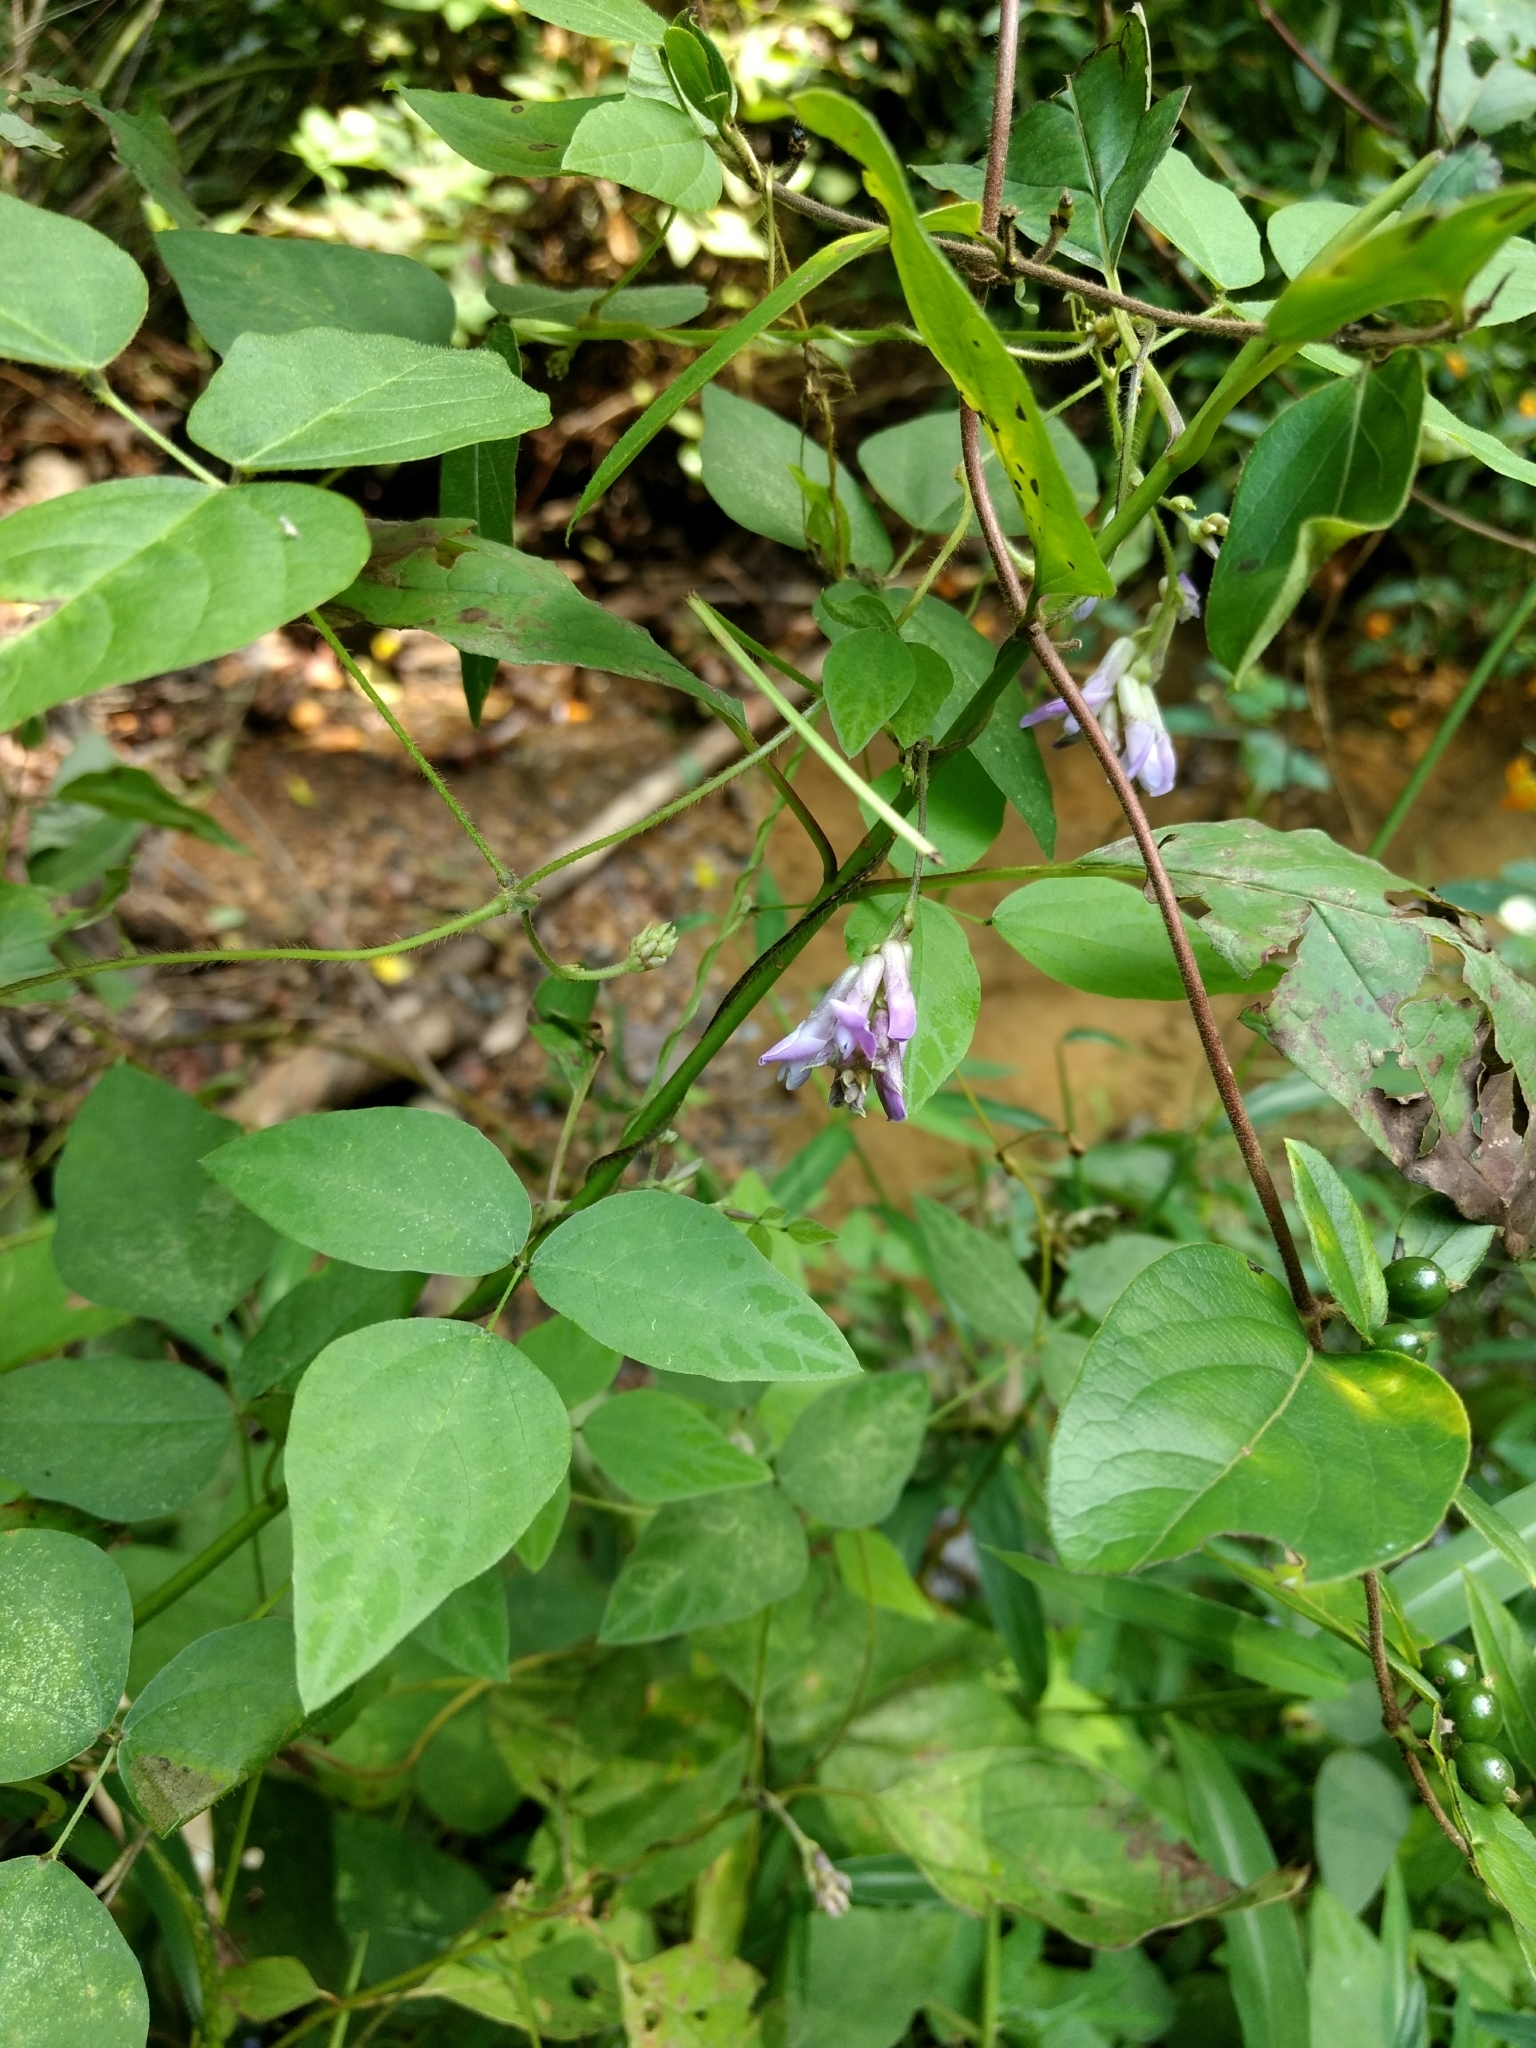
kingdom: Plantae
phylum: Tracheophyta
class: Magnoliopsida
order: Fabales
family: Fabaceae
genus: Amphicarpaea
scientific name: Amphicarpaea bracteata
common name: American hog peanut
